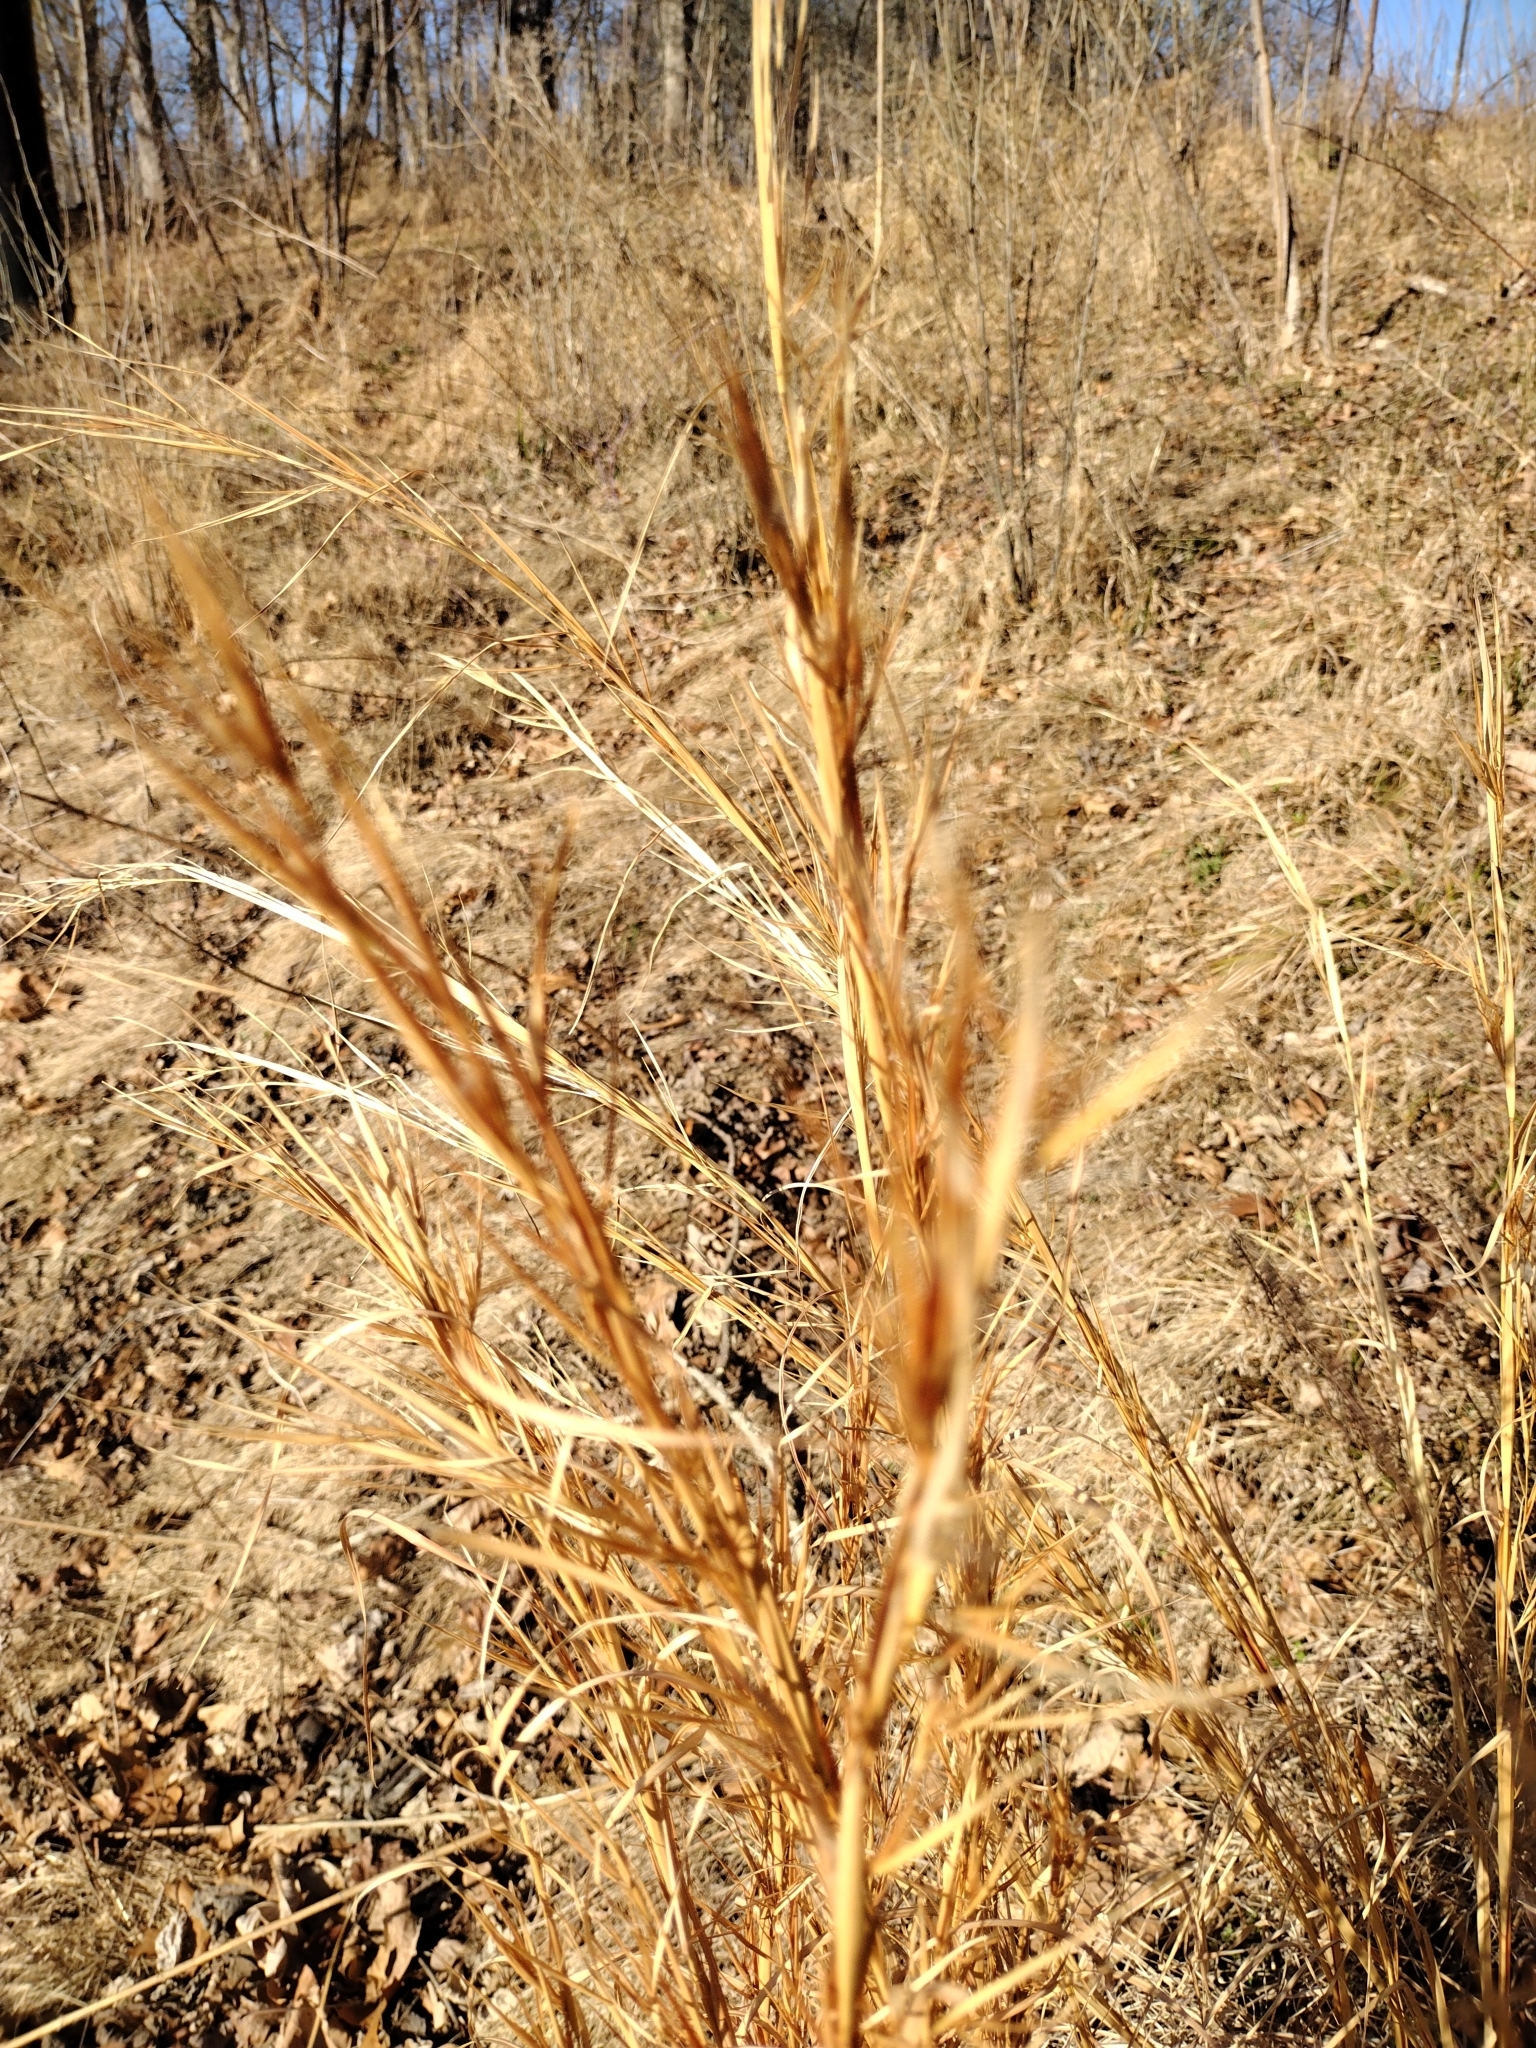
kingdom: Plantae
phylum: Tracheophyta
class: Liliopsida
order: Poales
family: Poaceae
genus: Andropogon
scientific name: Andropogon virginicus
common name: Broomsedge bluestem
